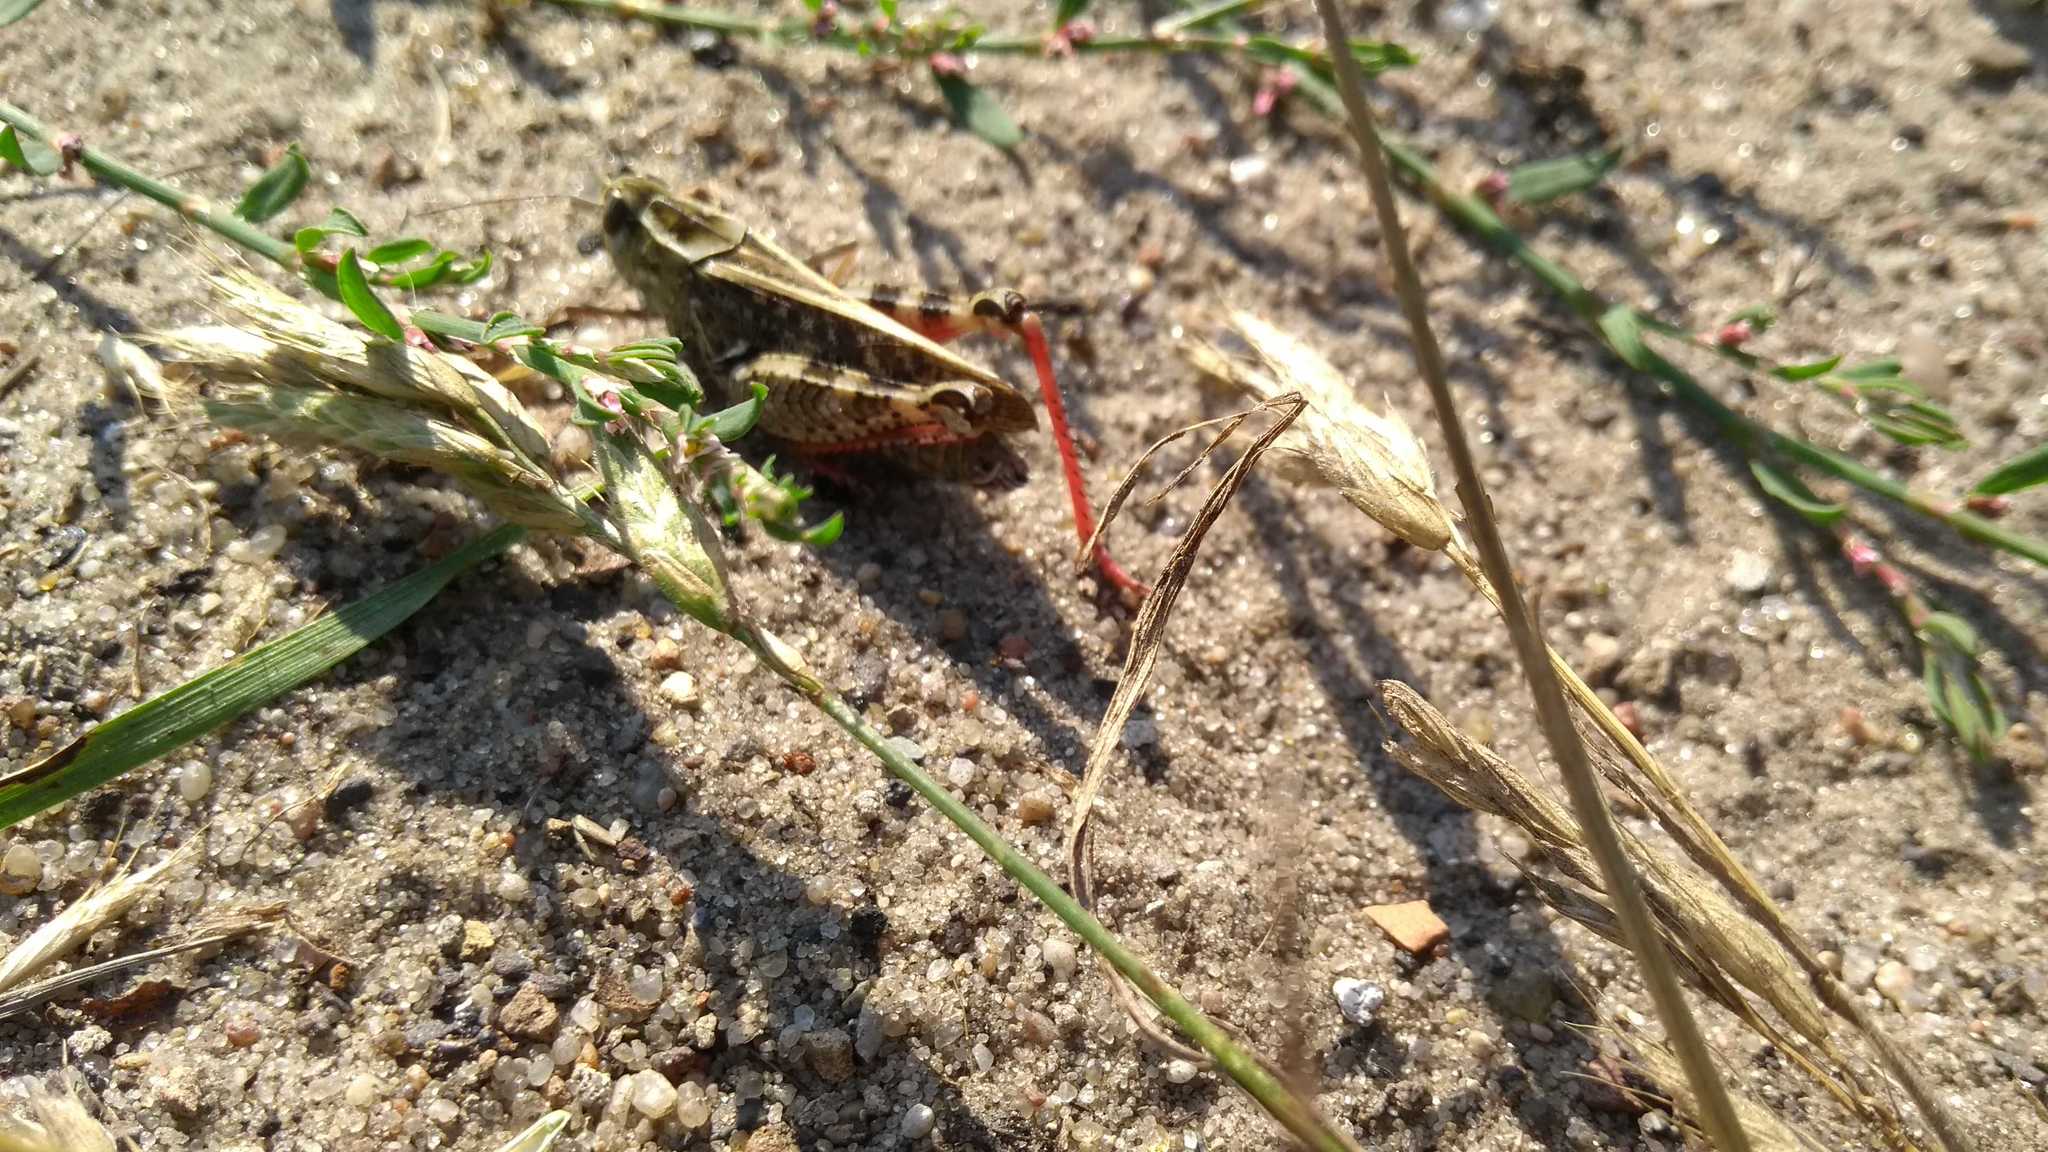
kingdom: Animalia
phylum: Arthropoda
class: Insecta
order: Orthoptera
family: Acrididae
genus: Calliptamus
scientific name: Calliptamus italicus
